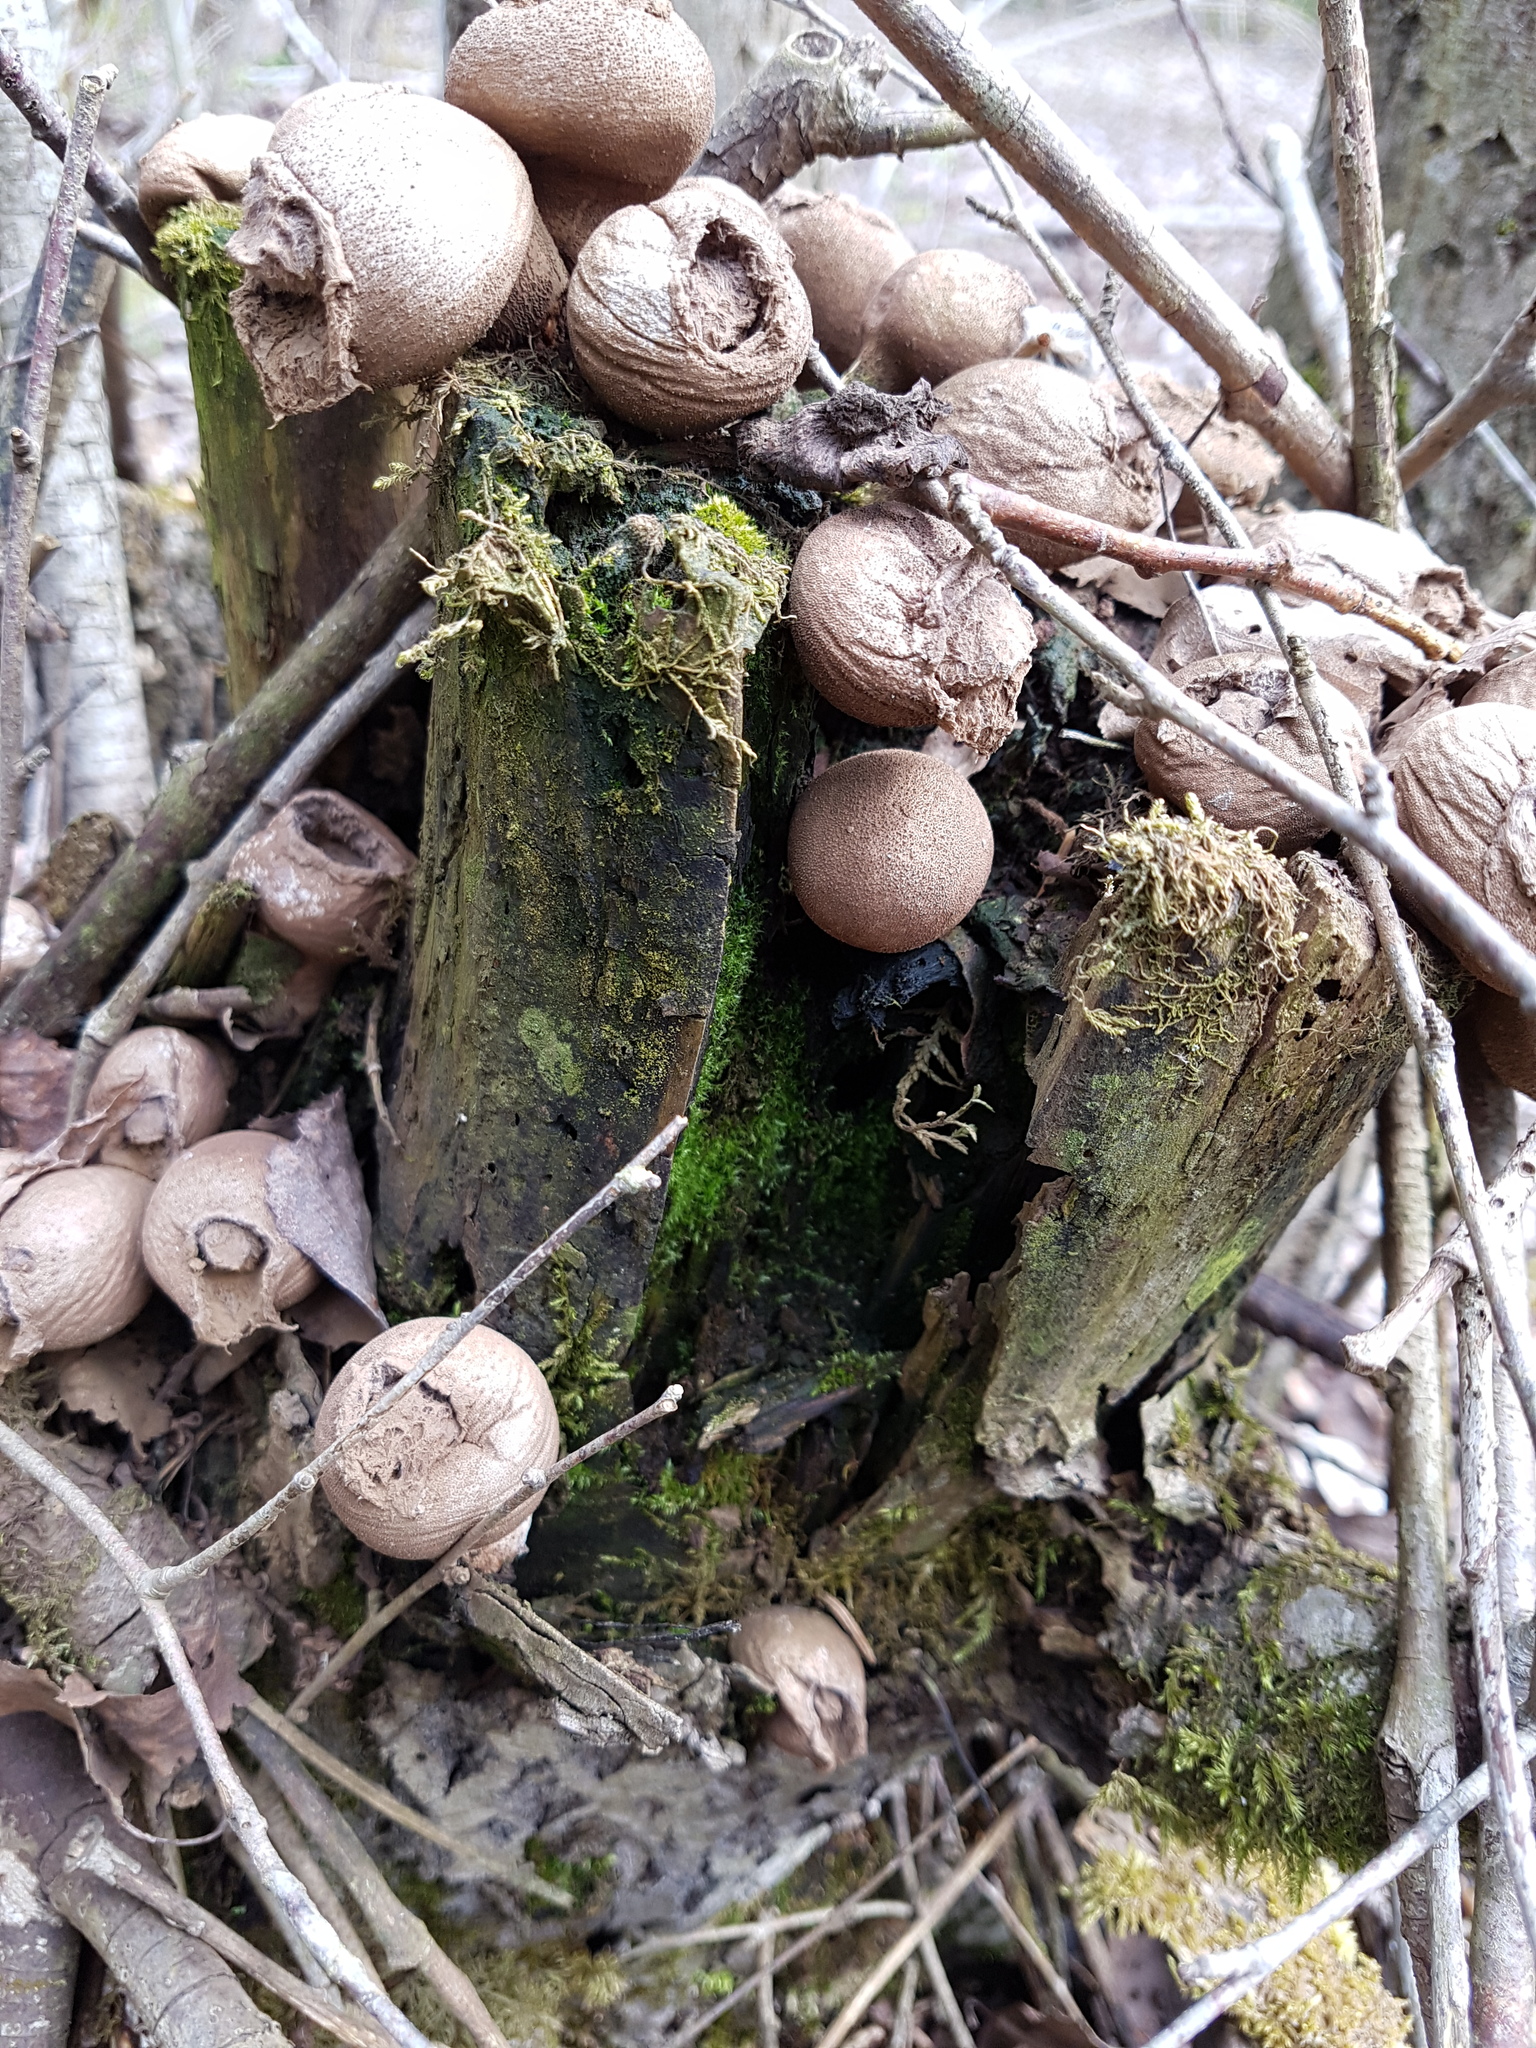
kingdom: Fungi
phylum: Basidiomycota
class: Agaricomycetes
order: Agaricales
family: Lycoperdaceae
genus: Apioperdon
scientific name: Apioperdon pyriforme
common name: Pear-shaped puffball
